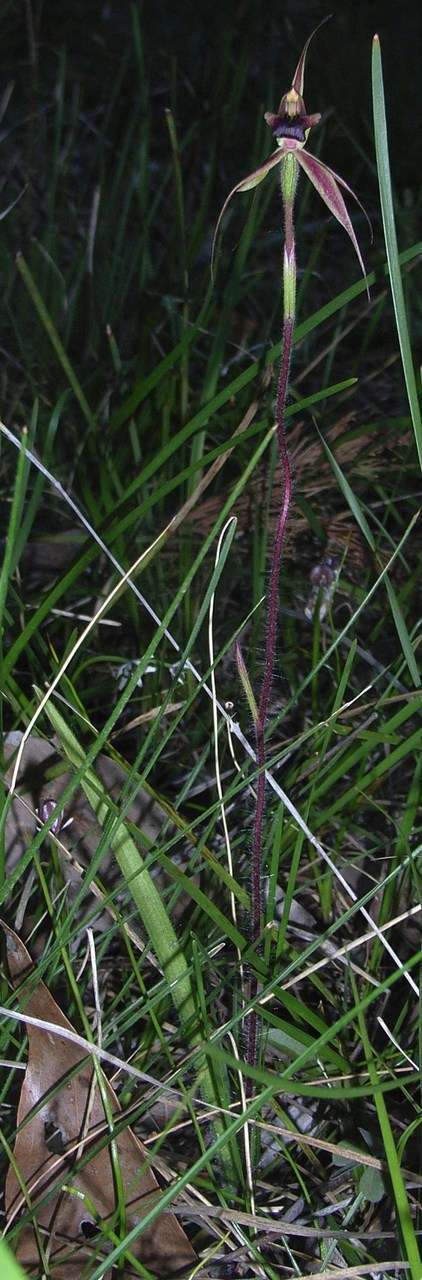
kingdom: Plantae
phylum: Tracheophyta
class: Liliopsida
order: Asparagales
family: Orchidaceae
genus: Caladenia
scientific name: Caladenia clavigera
